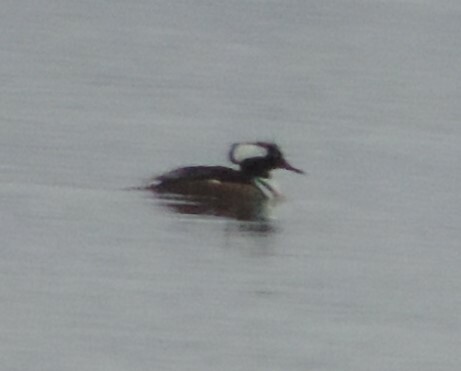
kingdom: Animalia
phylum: Chordata
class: Aves
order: Anseriformes
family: Anatidae
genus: Lophodytes
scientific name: Lophodytes cucullatus
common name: Hooded merganser
